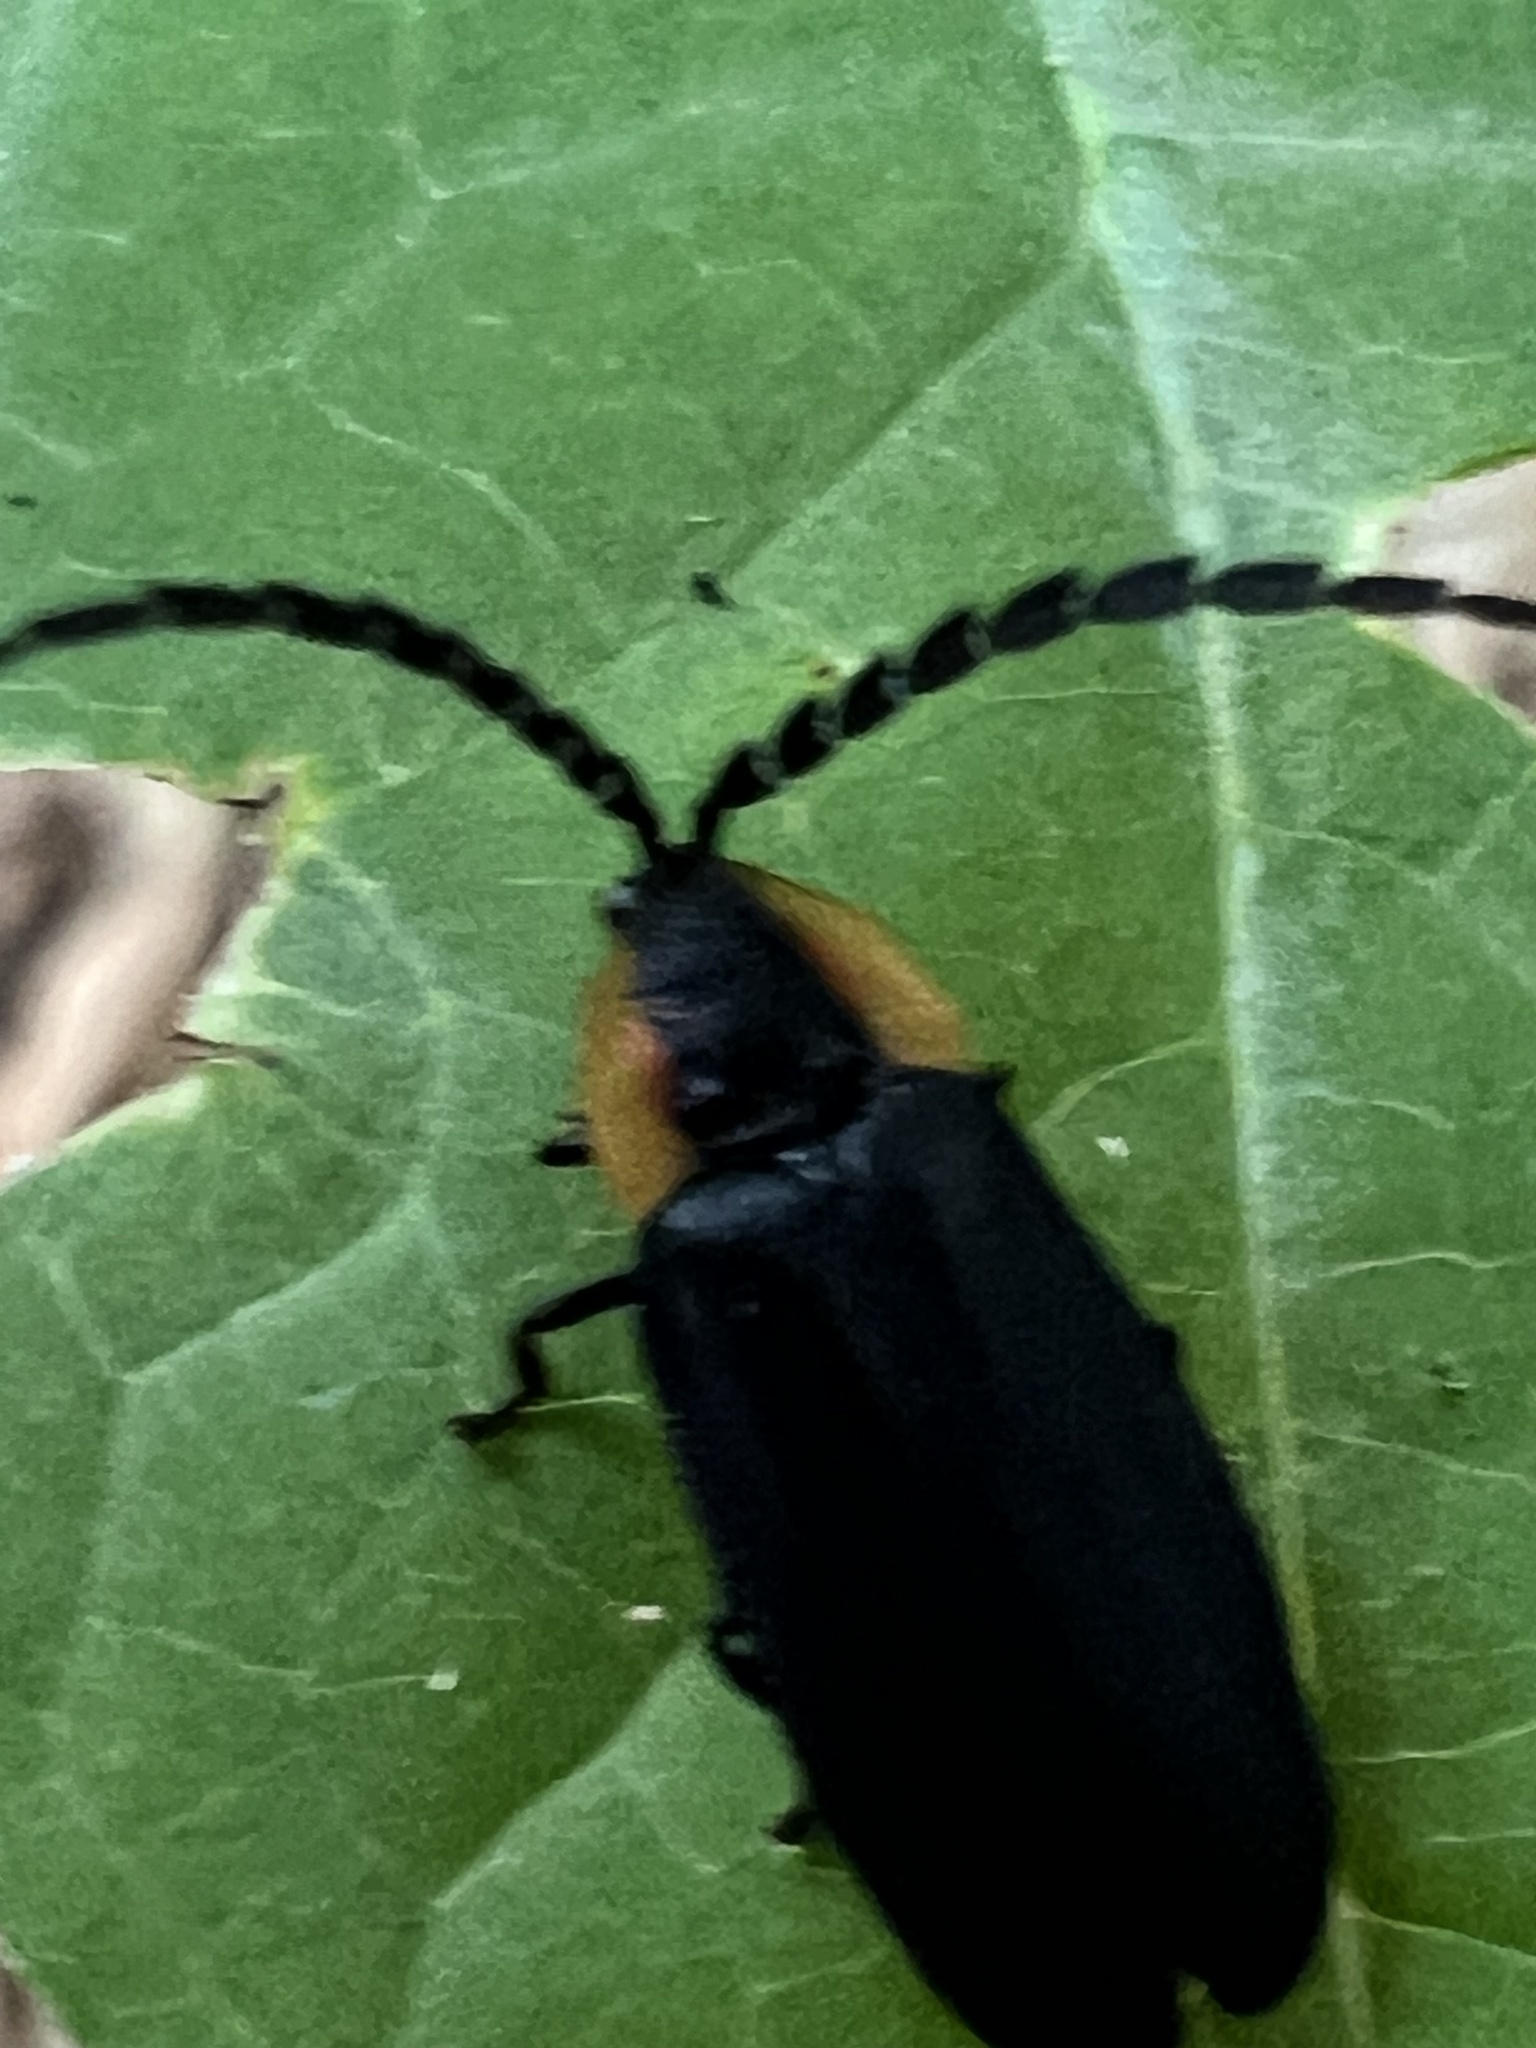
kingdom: Animalia
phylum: Arthropoda
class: Insecta
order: Coleoptera
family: Lampyridae
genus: Lucidota
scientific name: Lucidota atra
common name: Black firefly
